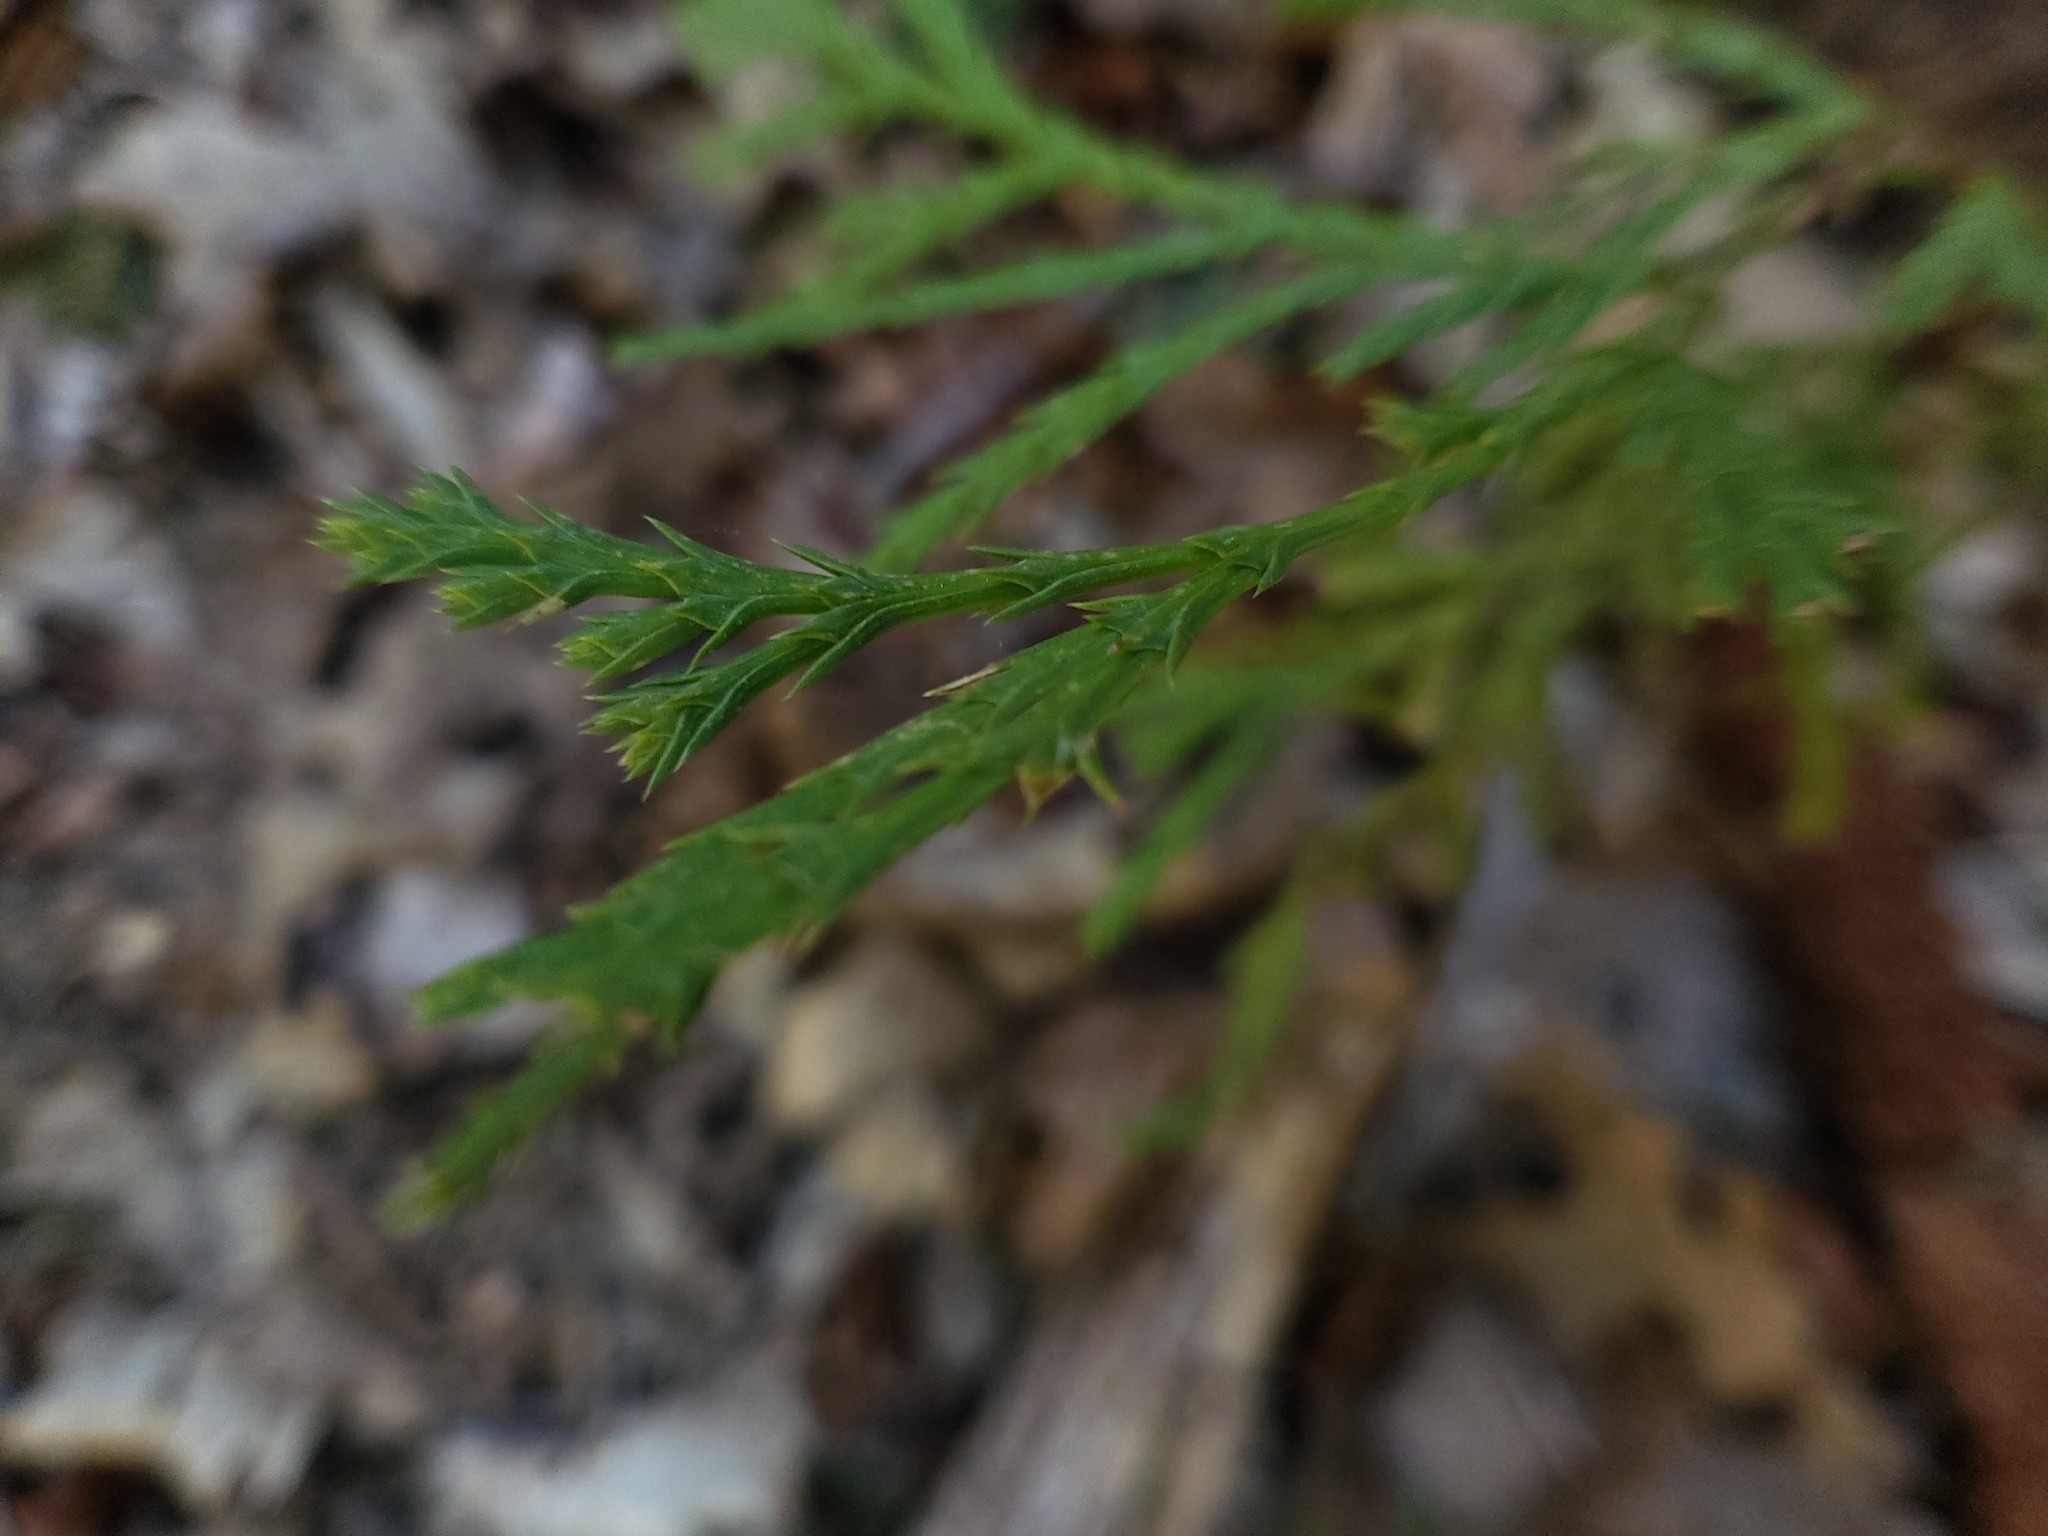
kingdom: Plantae
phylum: Tracheophyta
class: Pinopsida
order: Pinales
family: Cupressaceae
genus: Calocedrus
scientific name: Calocedrus decurrens
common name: Californian incense-cedar
